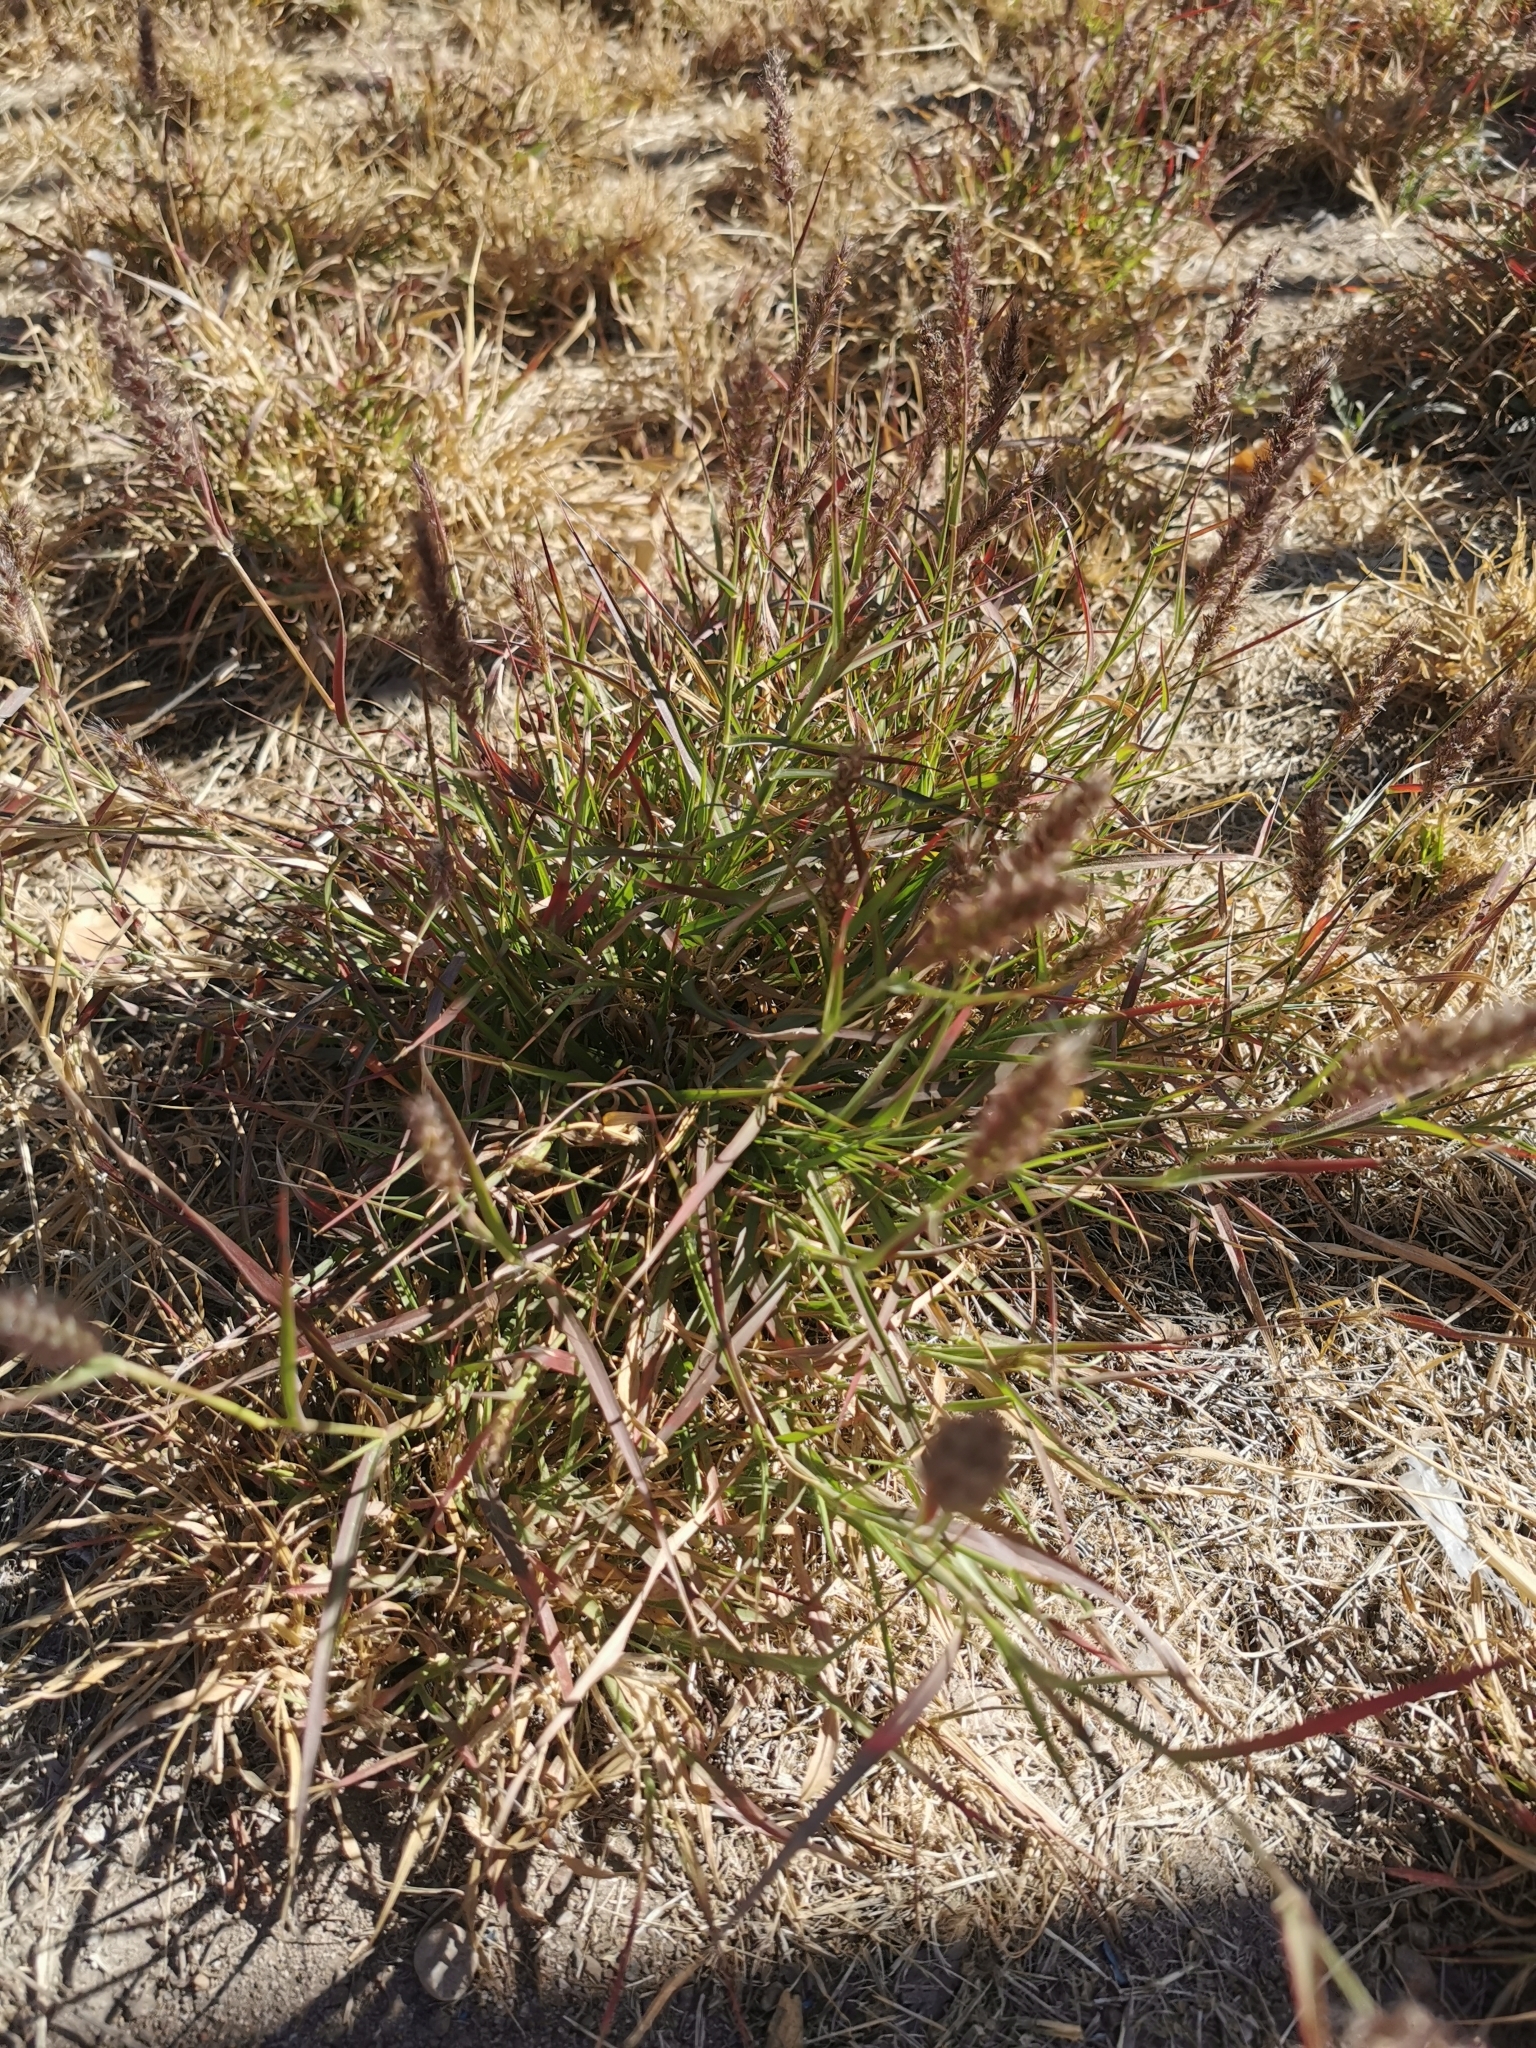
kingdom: Plantae
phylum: Tracheophyta
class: Liliopsida
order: Poales
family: Poaceae
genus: Cenchrus
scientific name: Cenchrus ciliaris
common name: Buffelgrass
